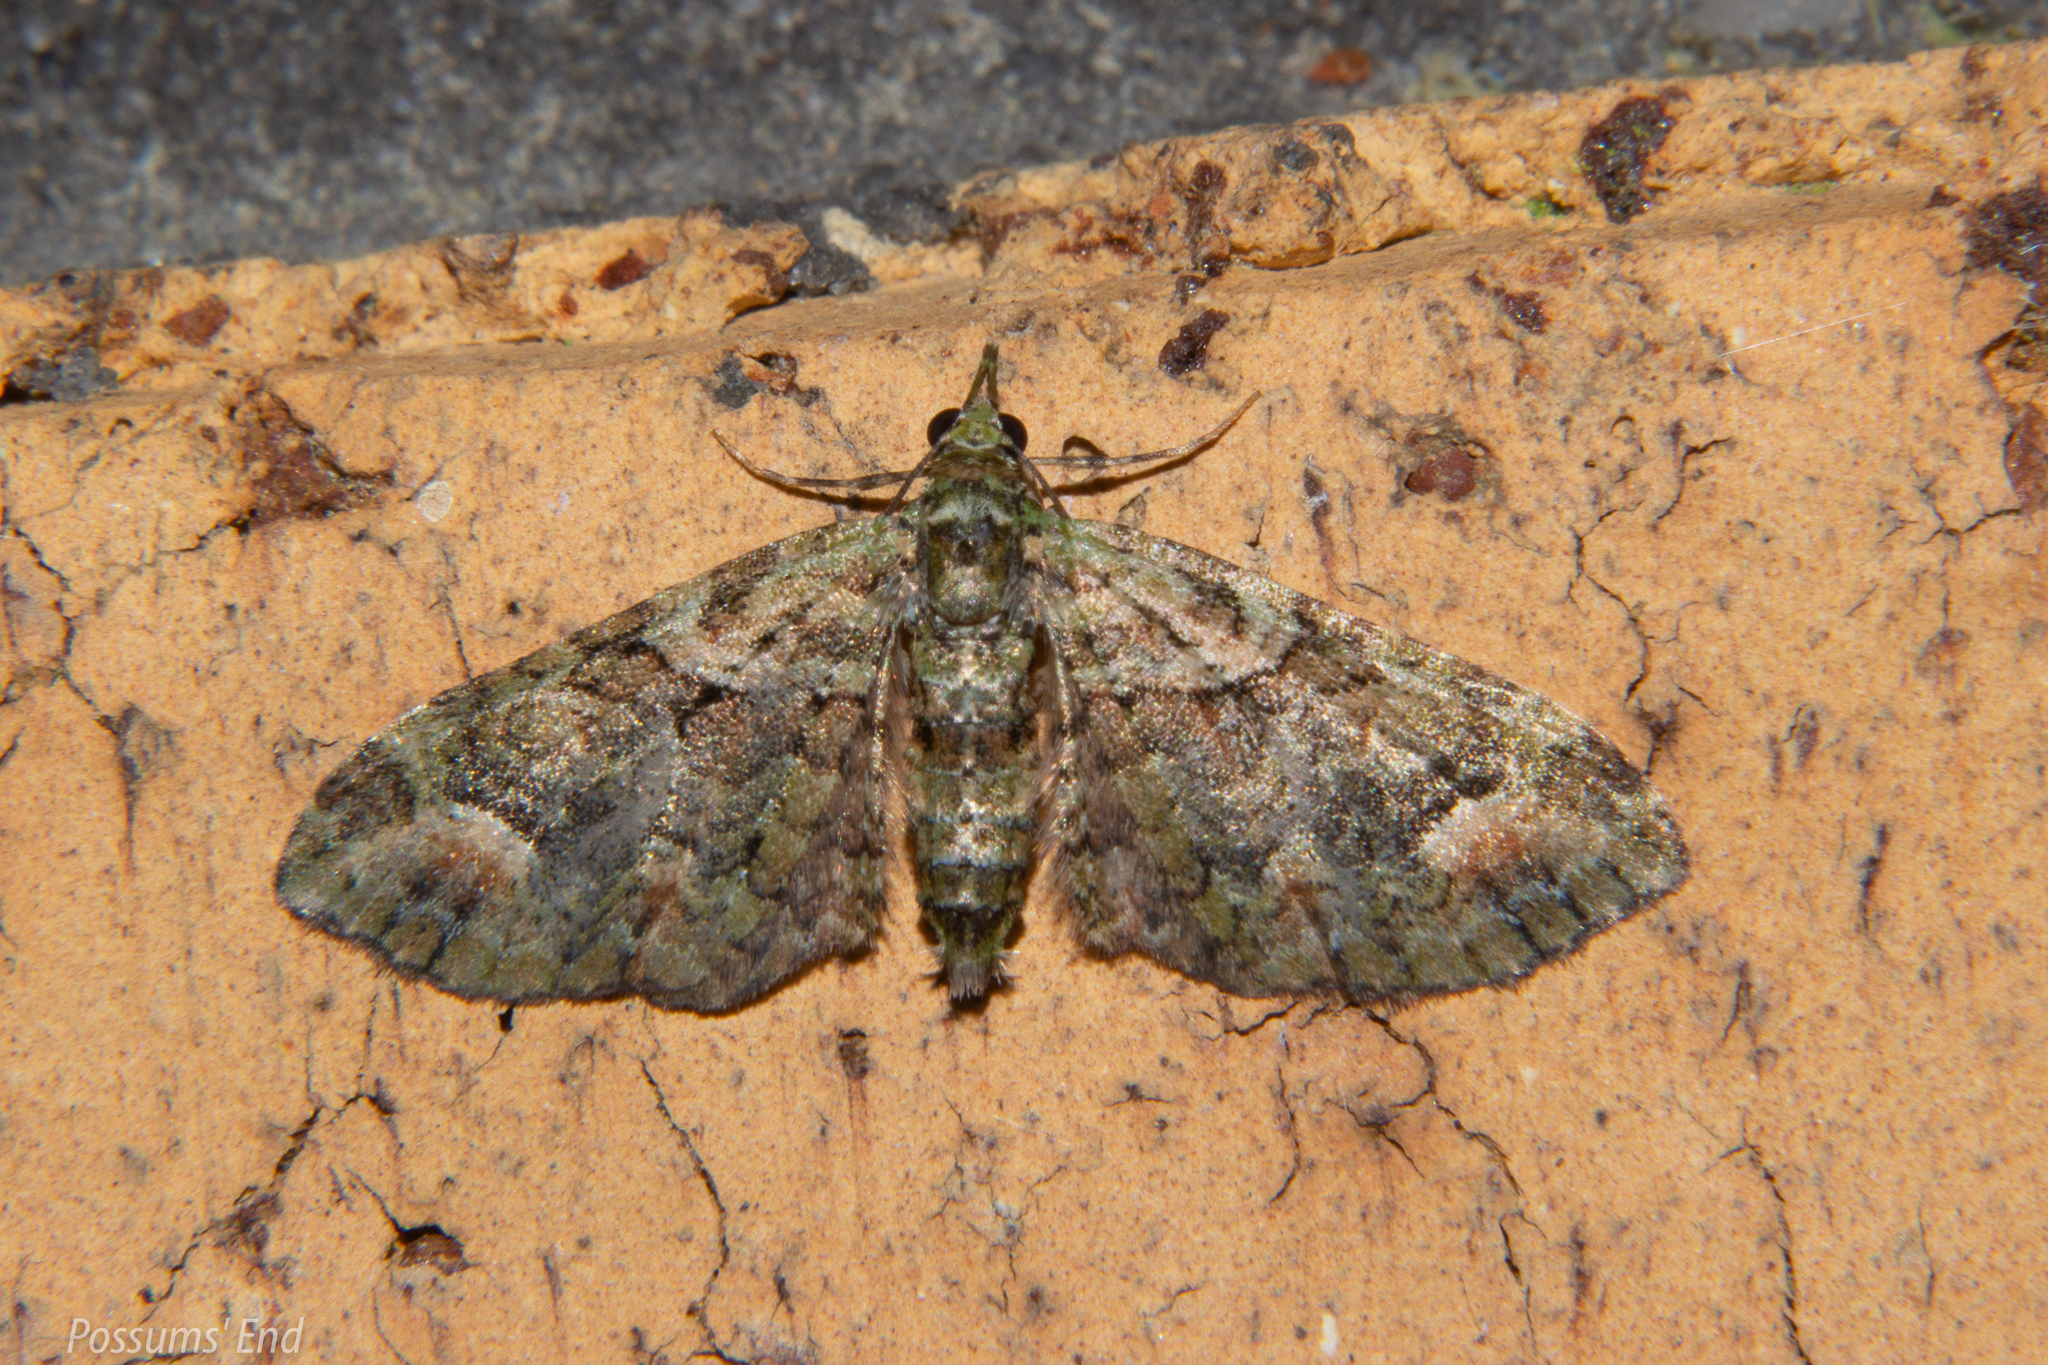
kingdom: Animalia
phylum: Arthropoda
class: Insecta
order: Lepidoptera
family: Geometridae
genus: Idaea
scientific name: Idaea mutanda
